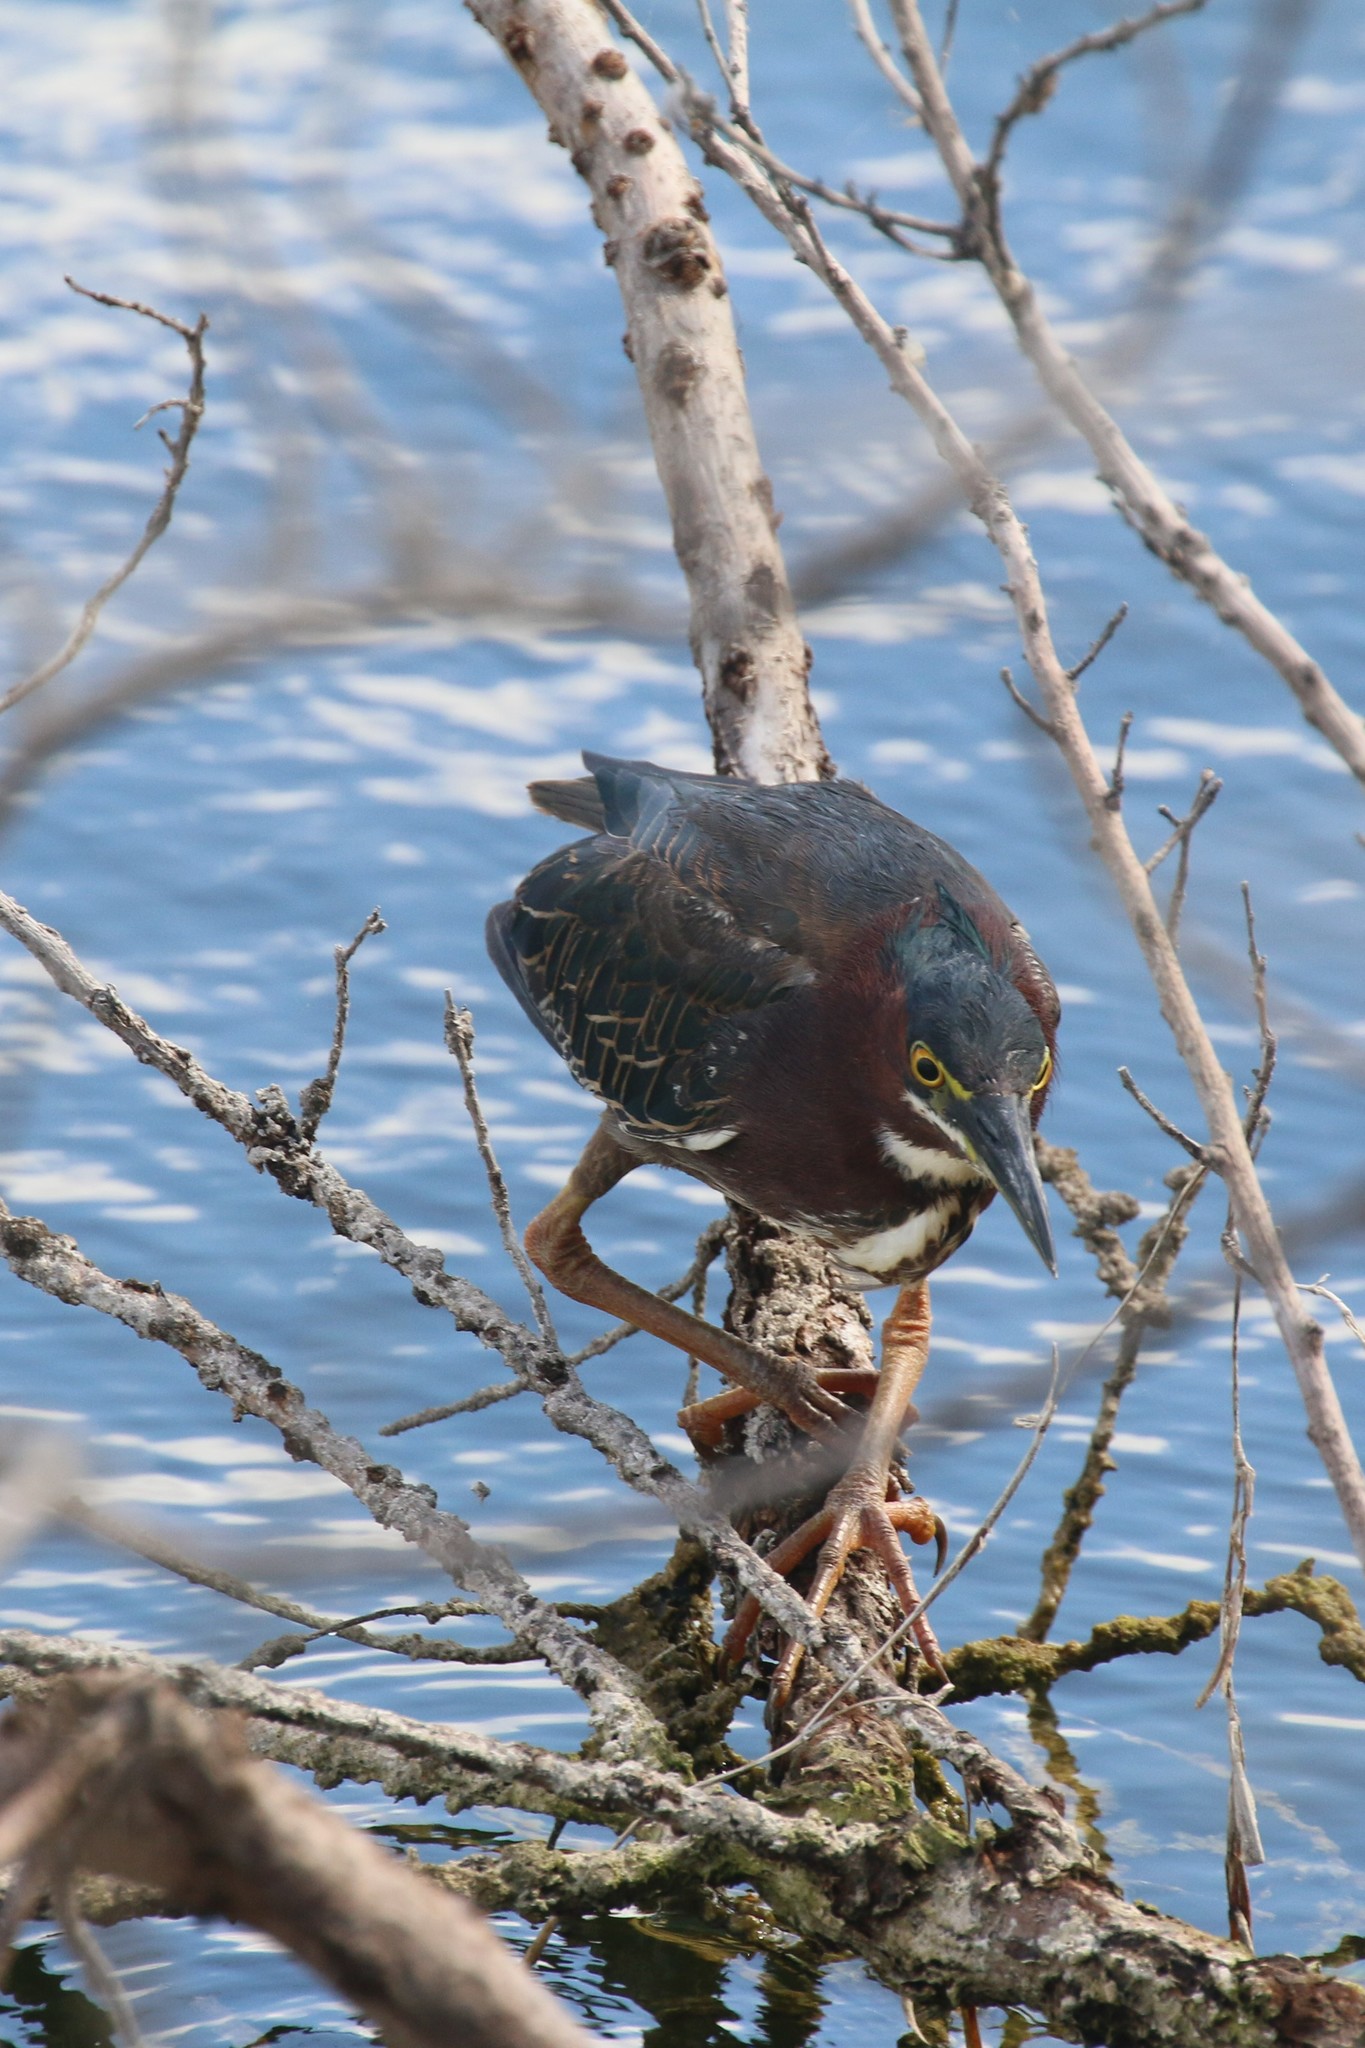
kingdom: Animalia
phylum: Chordata
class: Aves
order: Pelecaniformes
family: Ardeidae
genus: Butorides
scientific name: Butorides virescens
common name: Green heron
